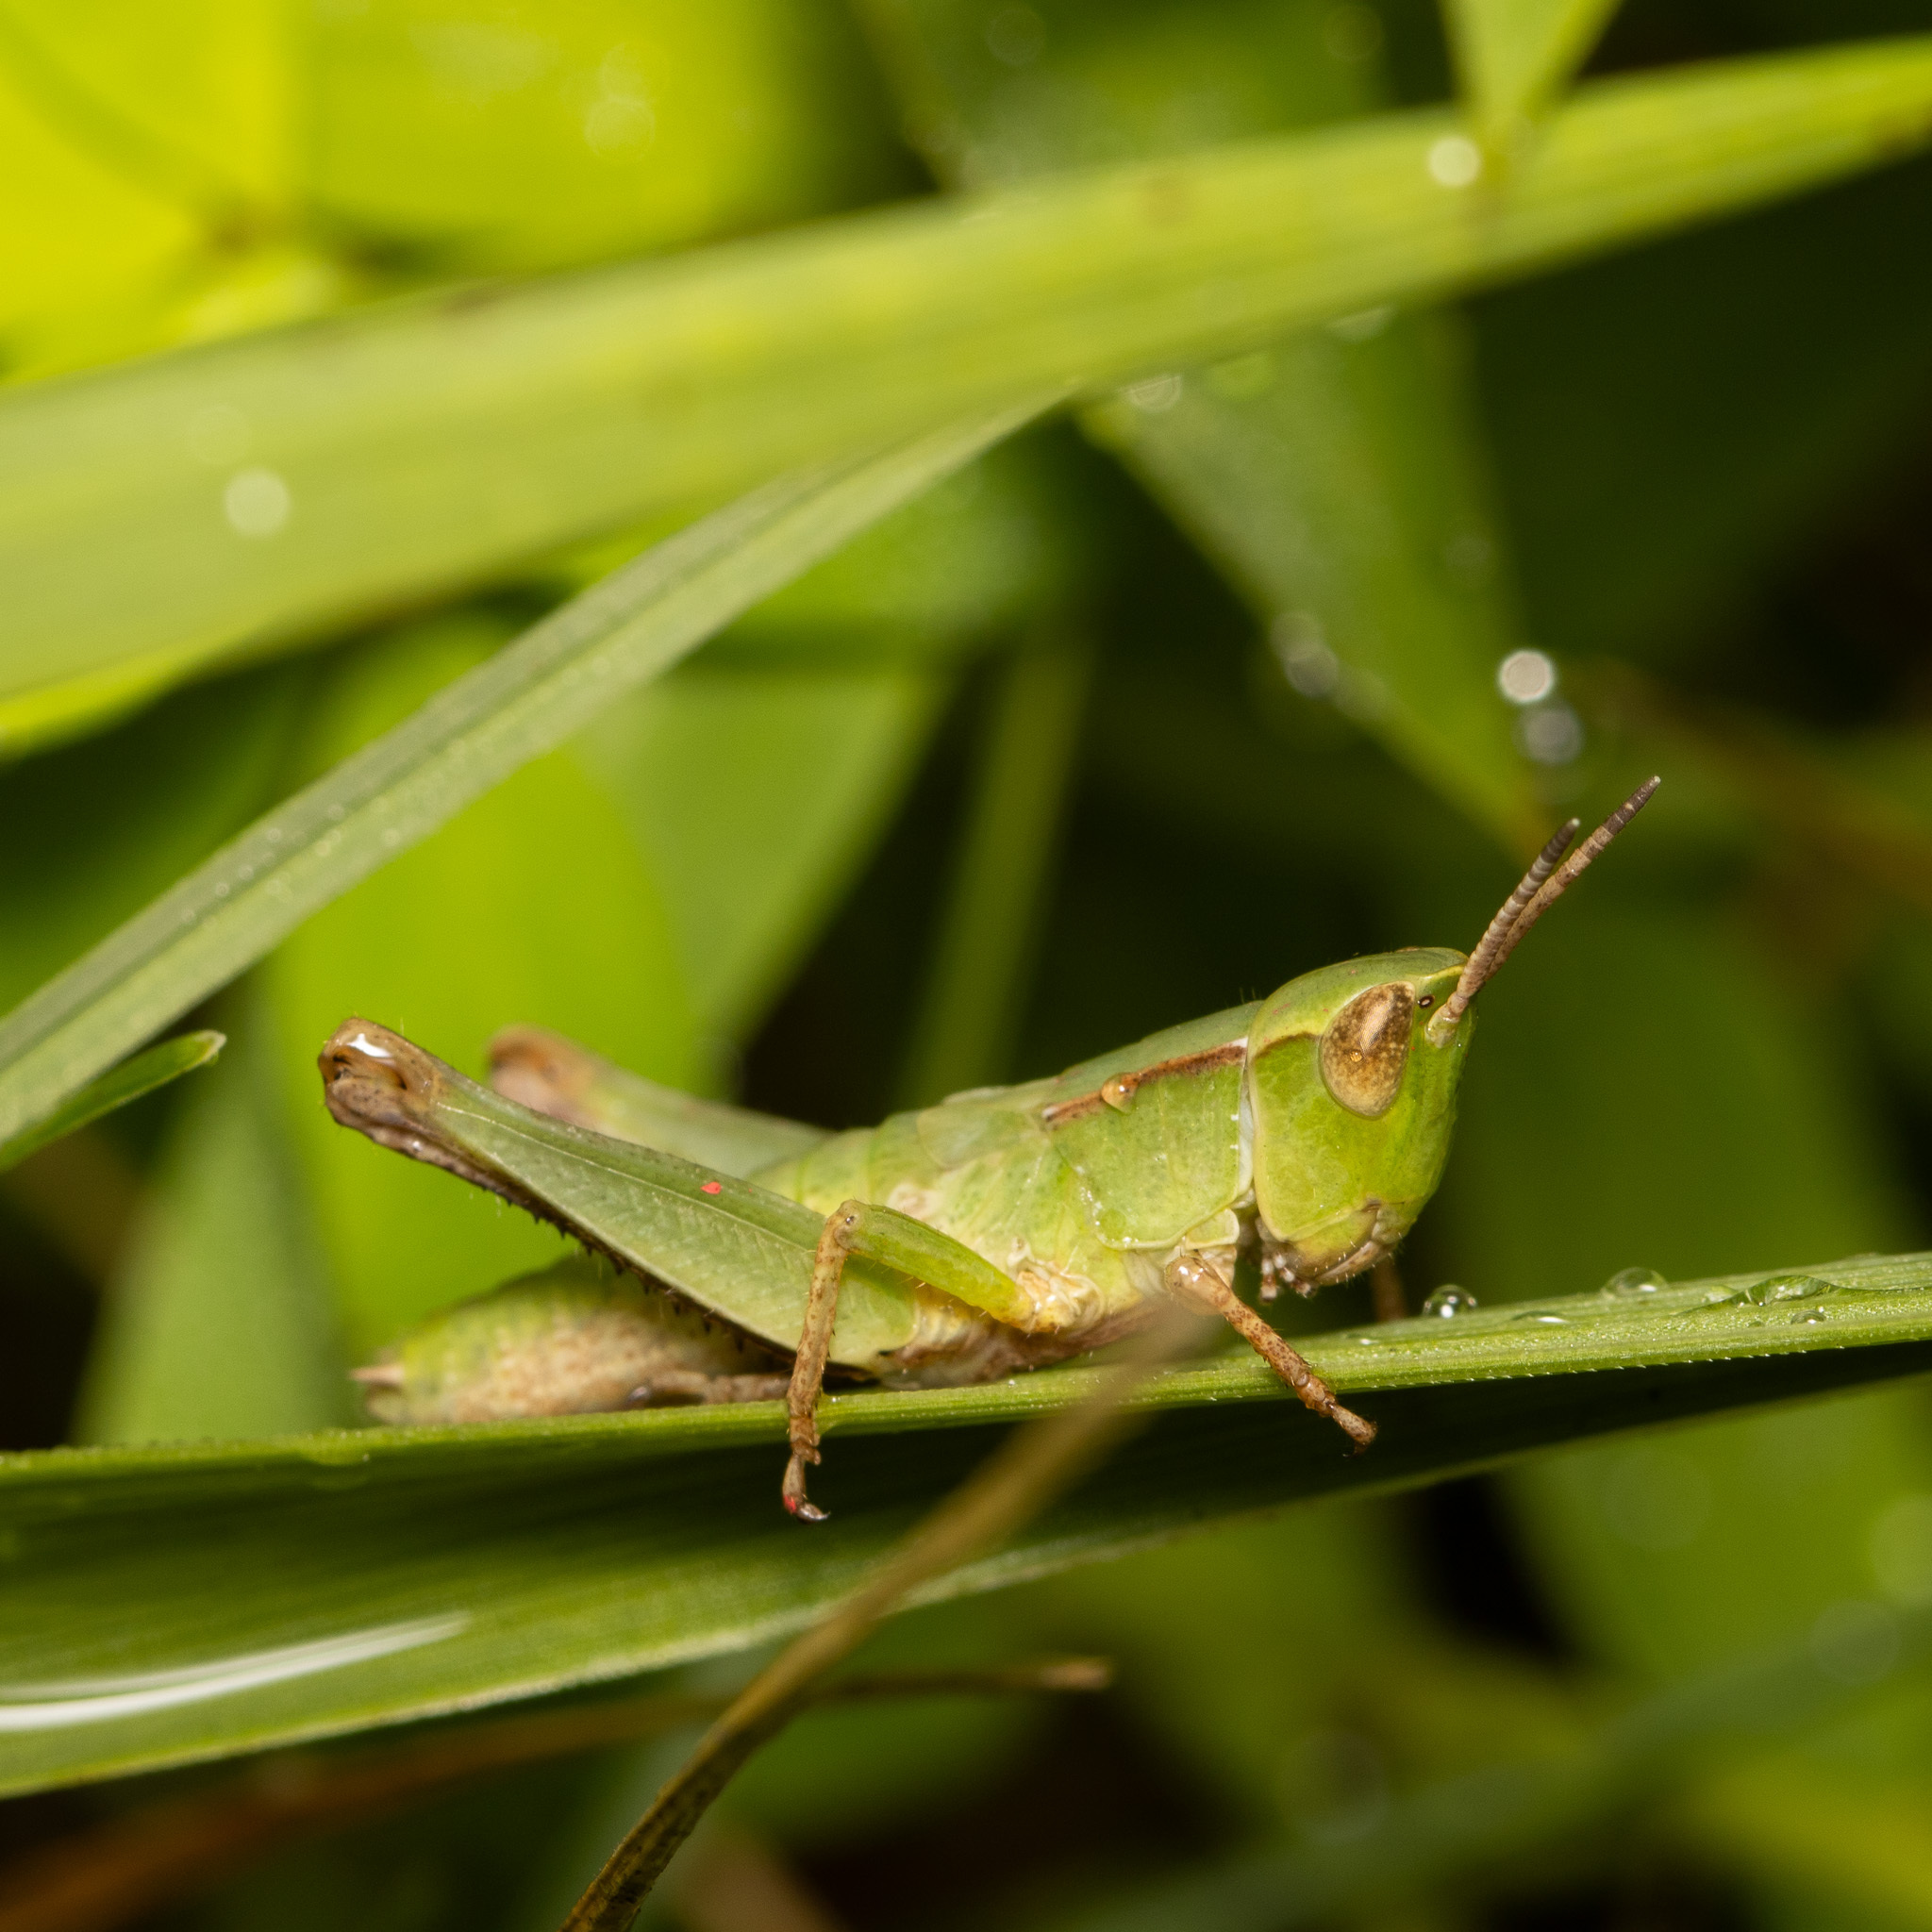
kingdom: Animalia
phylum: Arthropoda
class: Insecta
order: Orthoptera
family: Acrididae
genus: Dichromorpha
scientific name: Dichromorpha viridis
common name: Short-winged green grasshopper
